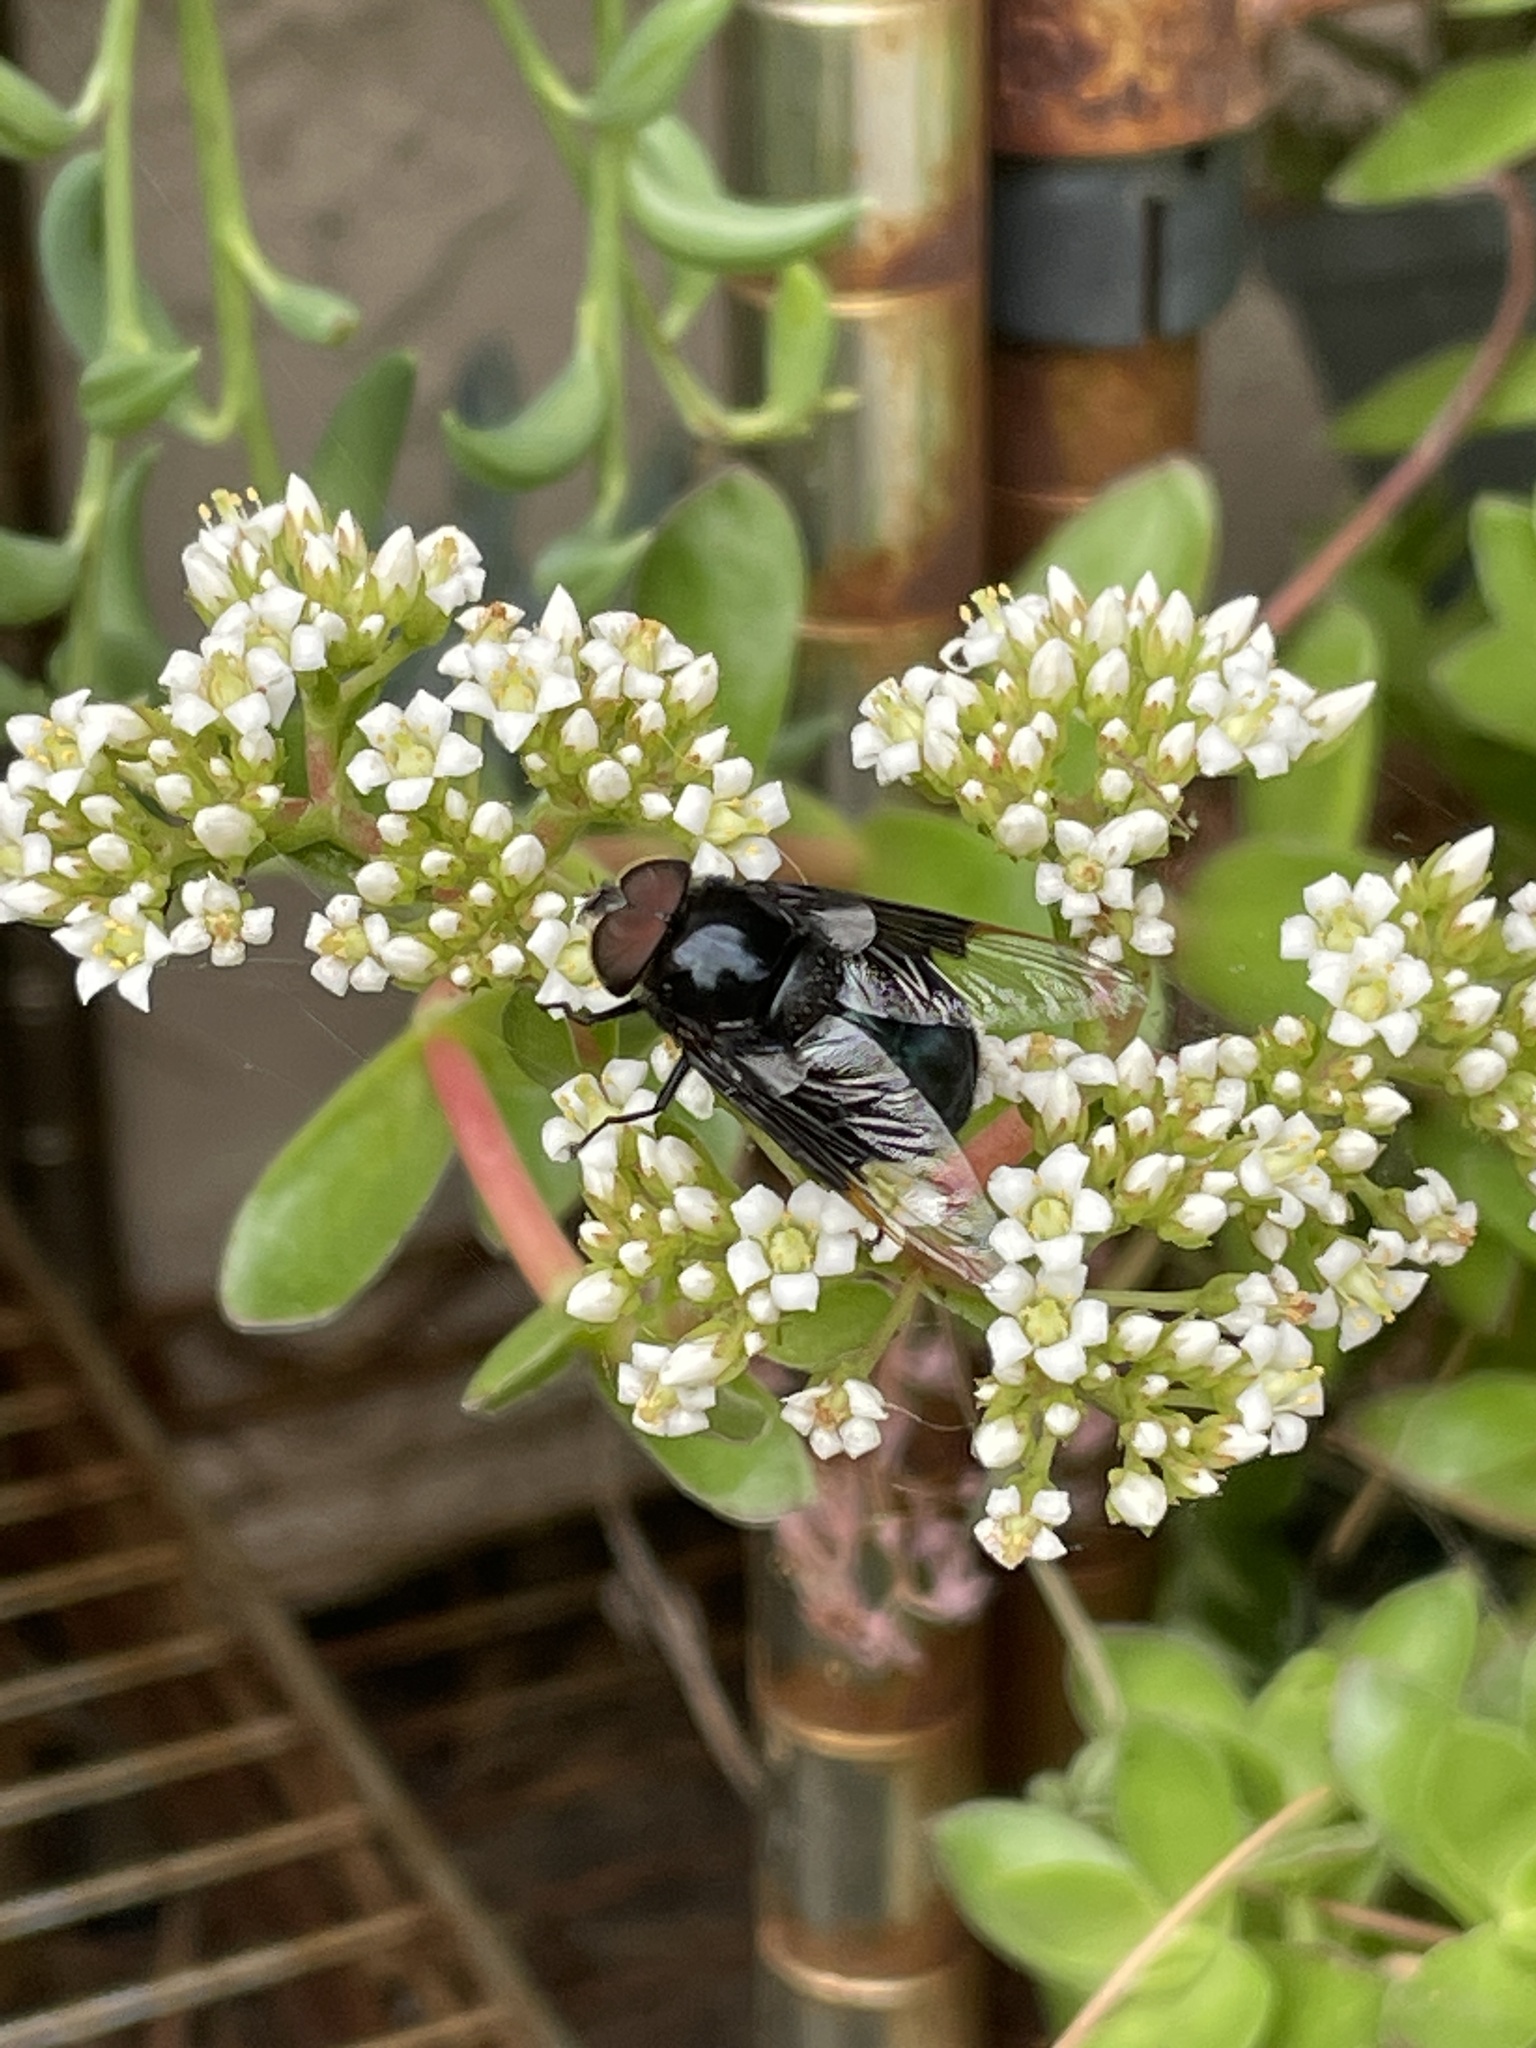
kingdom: Animalia
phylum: Arthropoda
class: Insecta
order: Diptera
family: Syrphidae
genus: Copestylum
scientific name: Copestylum mexicanum
